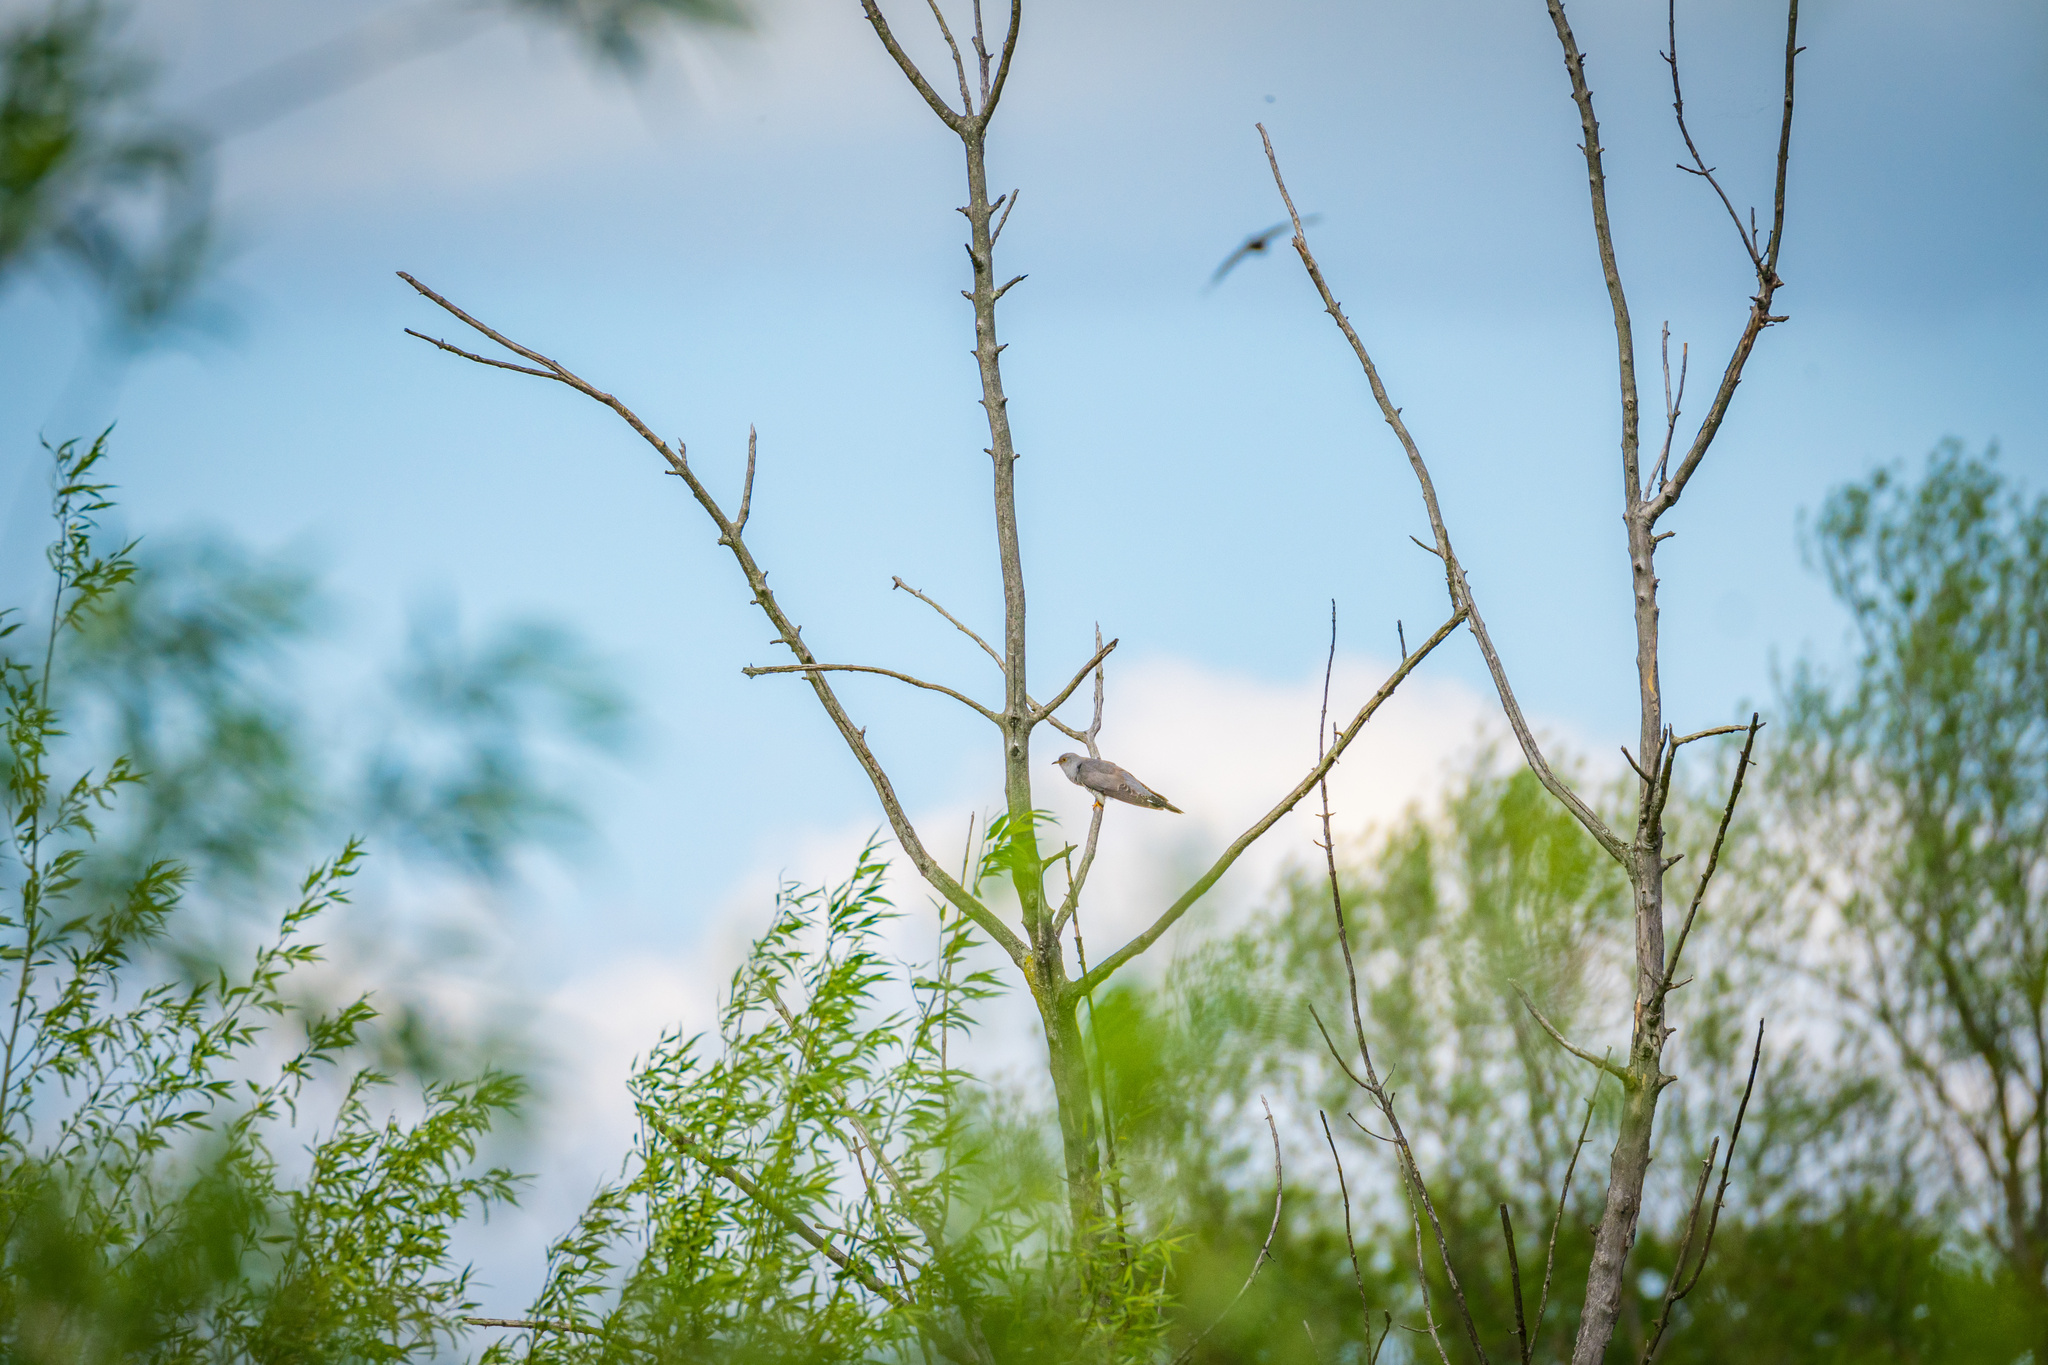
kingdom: Animalia
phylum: Chordata
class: Aves
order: Cuculiformes
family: Cuculidae
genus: Cuculus
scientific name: Cuculus canorus
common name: Common cuckoo
